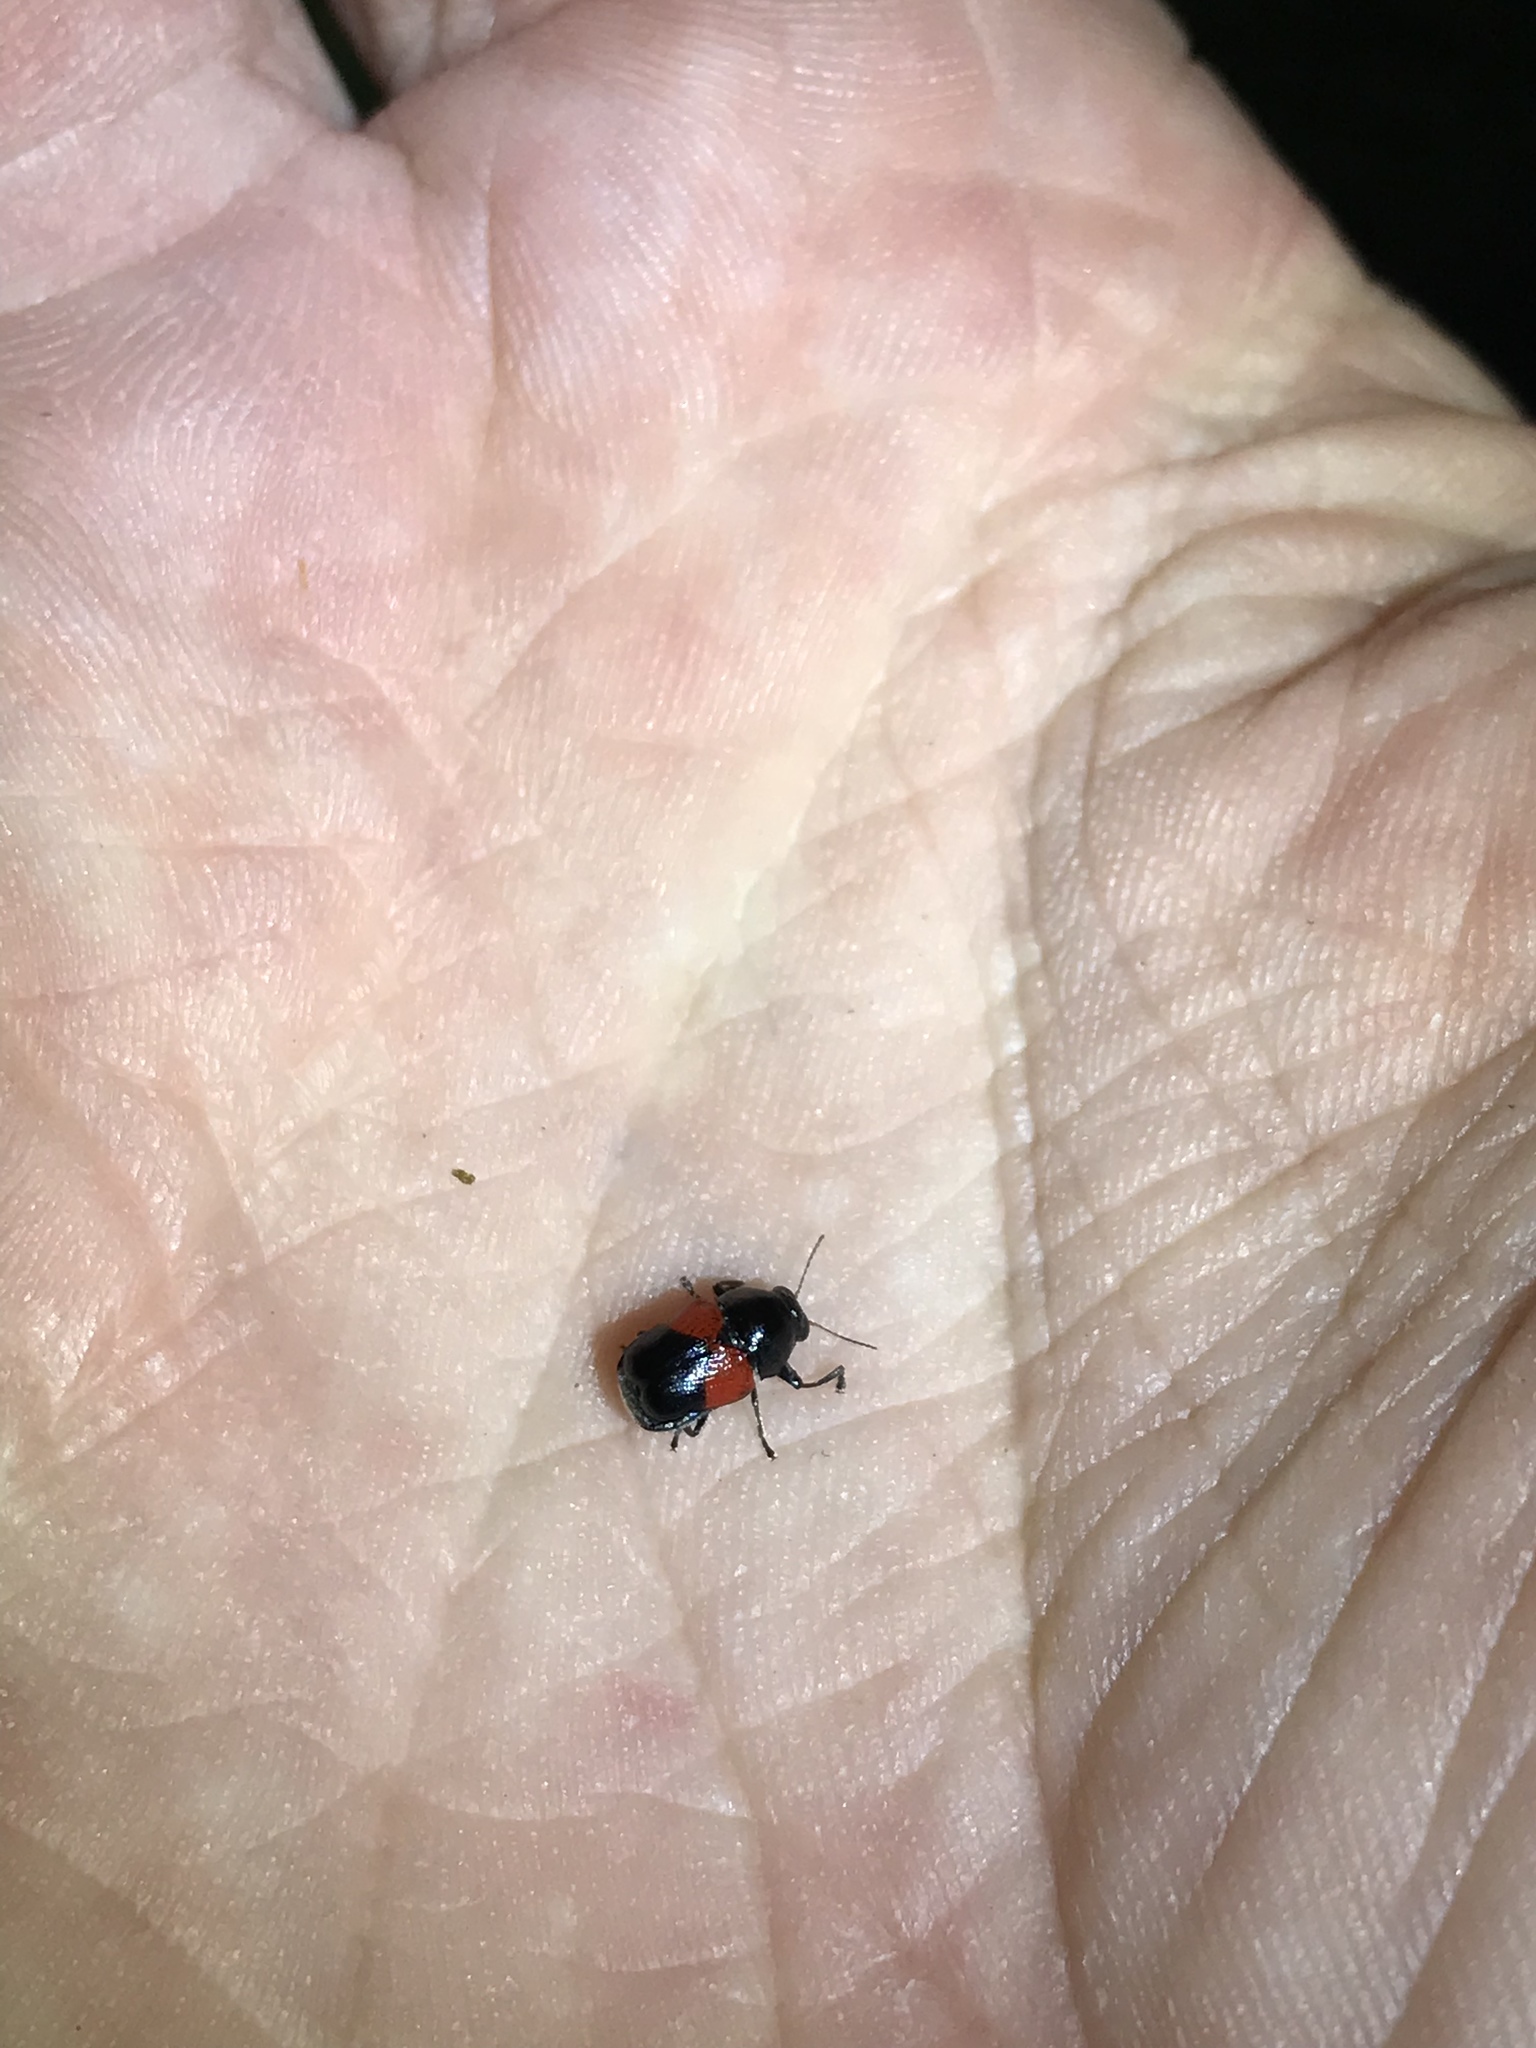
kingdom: Animalia
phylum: Arthropoda
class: Insecta
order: Coleoptera
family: Chrysomelidae
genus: Scelolyperus
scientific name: Scelolyperus lecontii
